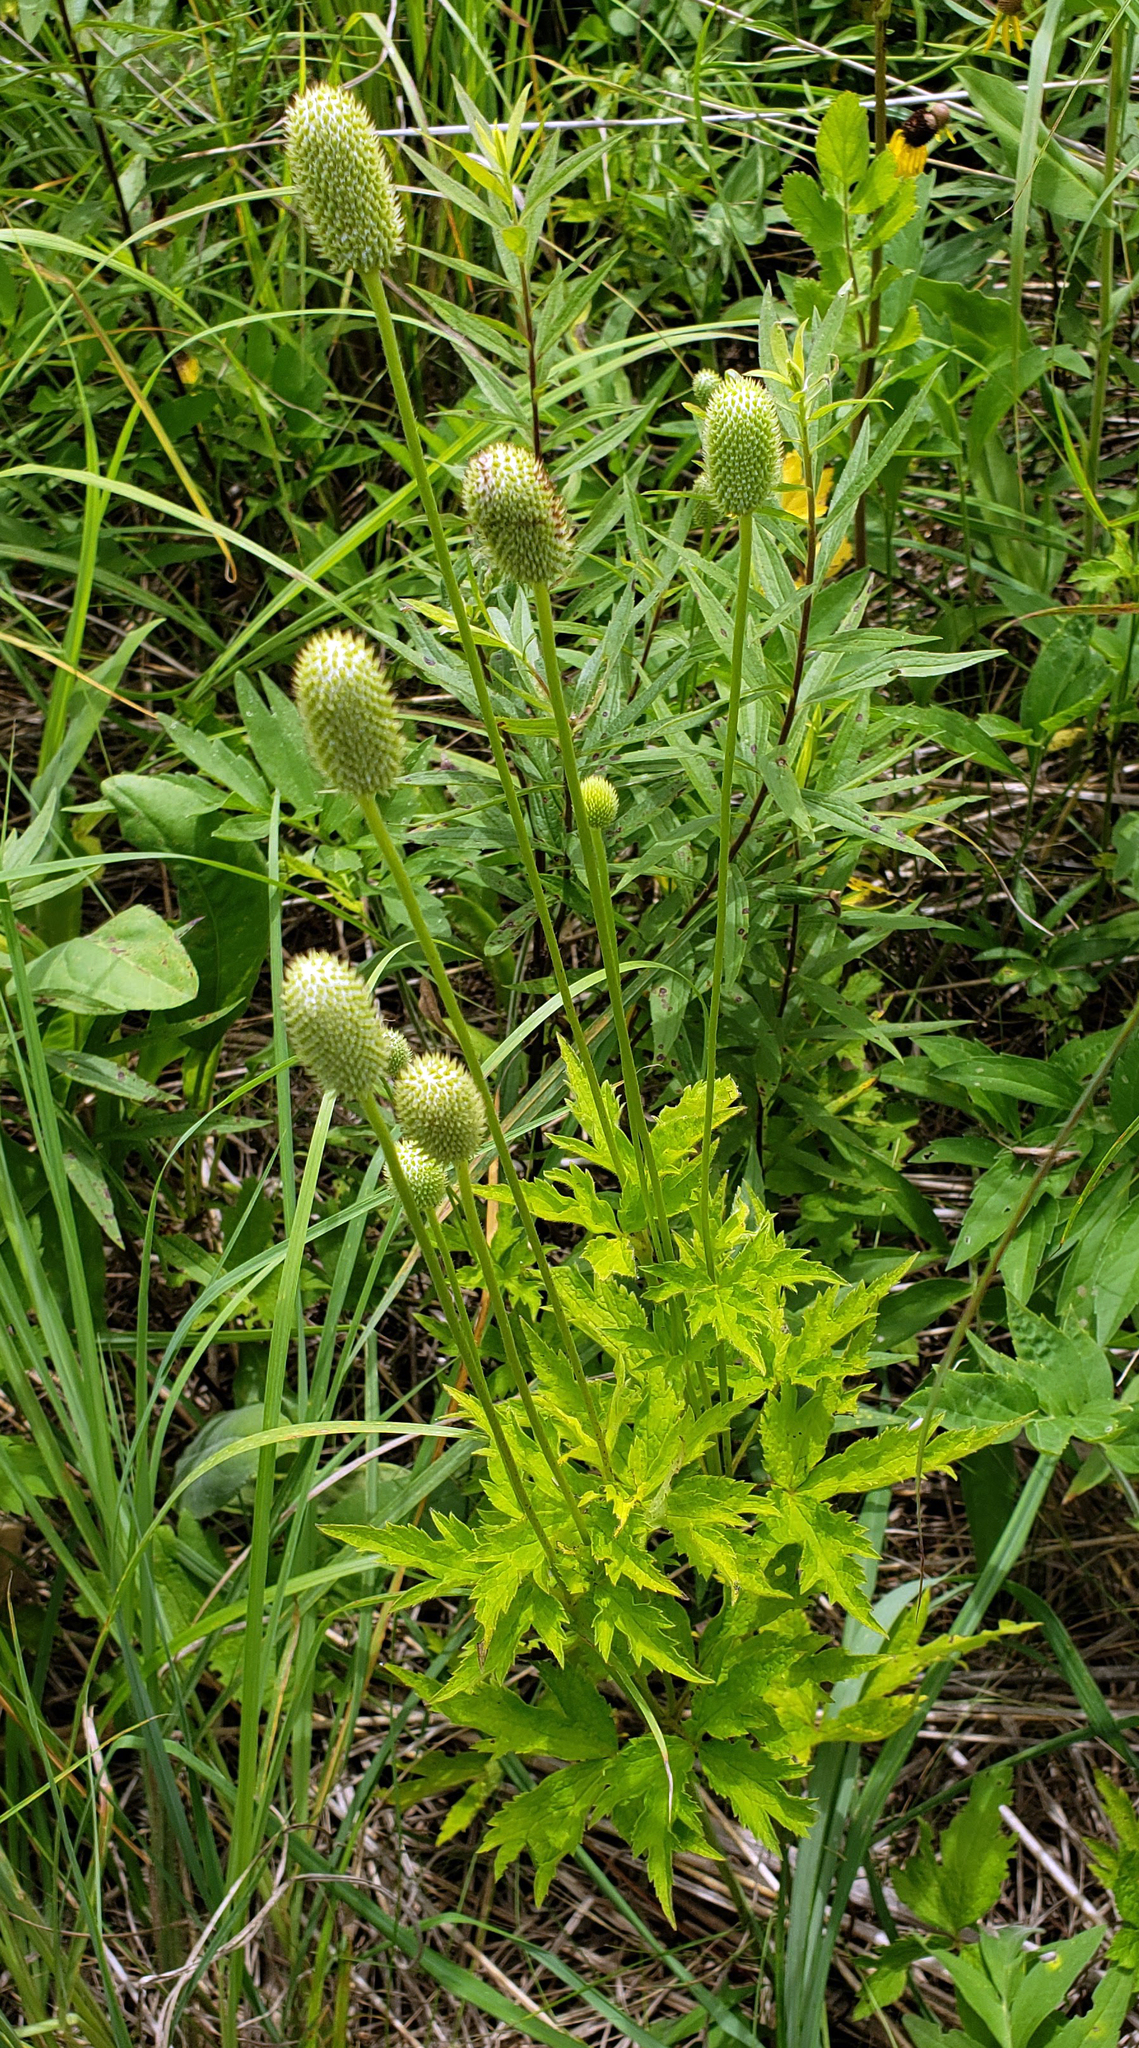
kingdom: Plantae
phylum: Tracheophyta
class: Magnoliopsida
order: Ranunculales
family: Ranunculaceae
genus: Anemone
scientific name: Anemone virginiana
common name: Tall anemone
